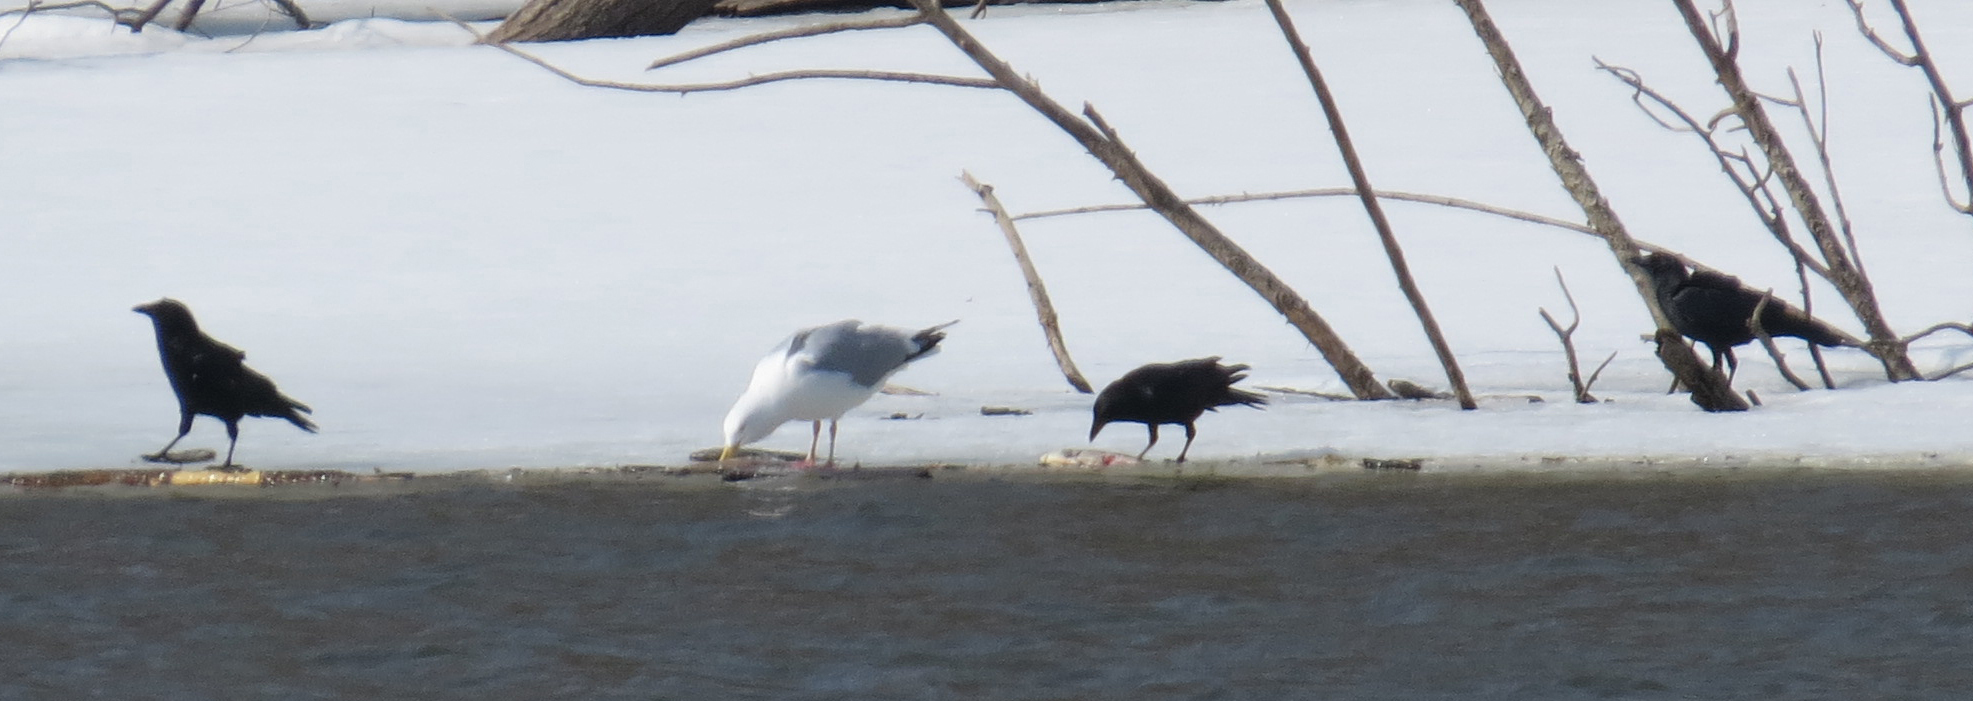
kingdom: Animalia
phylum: Chordata
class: Aves
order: Passeriformes
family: Corvidae
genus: Corvus
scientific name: Corvus brachyrhynchos
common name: American crow
